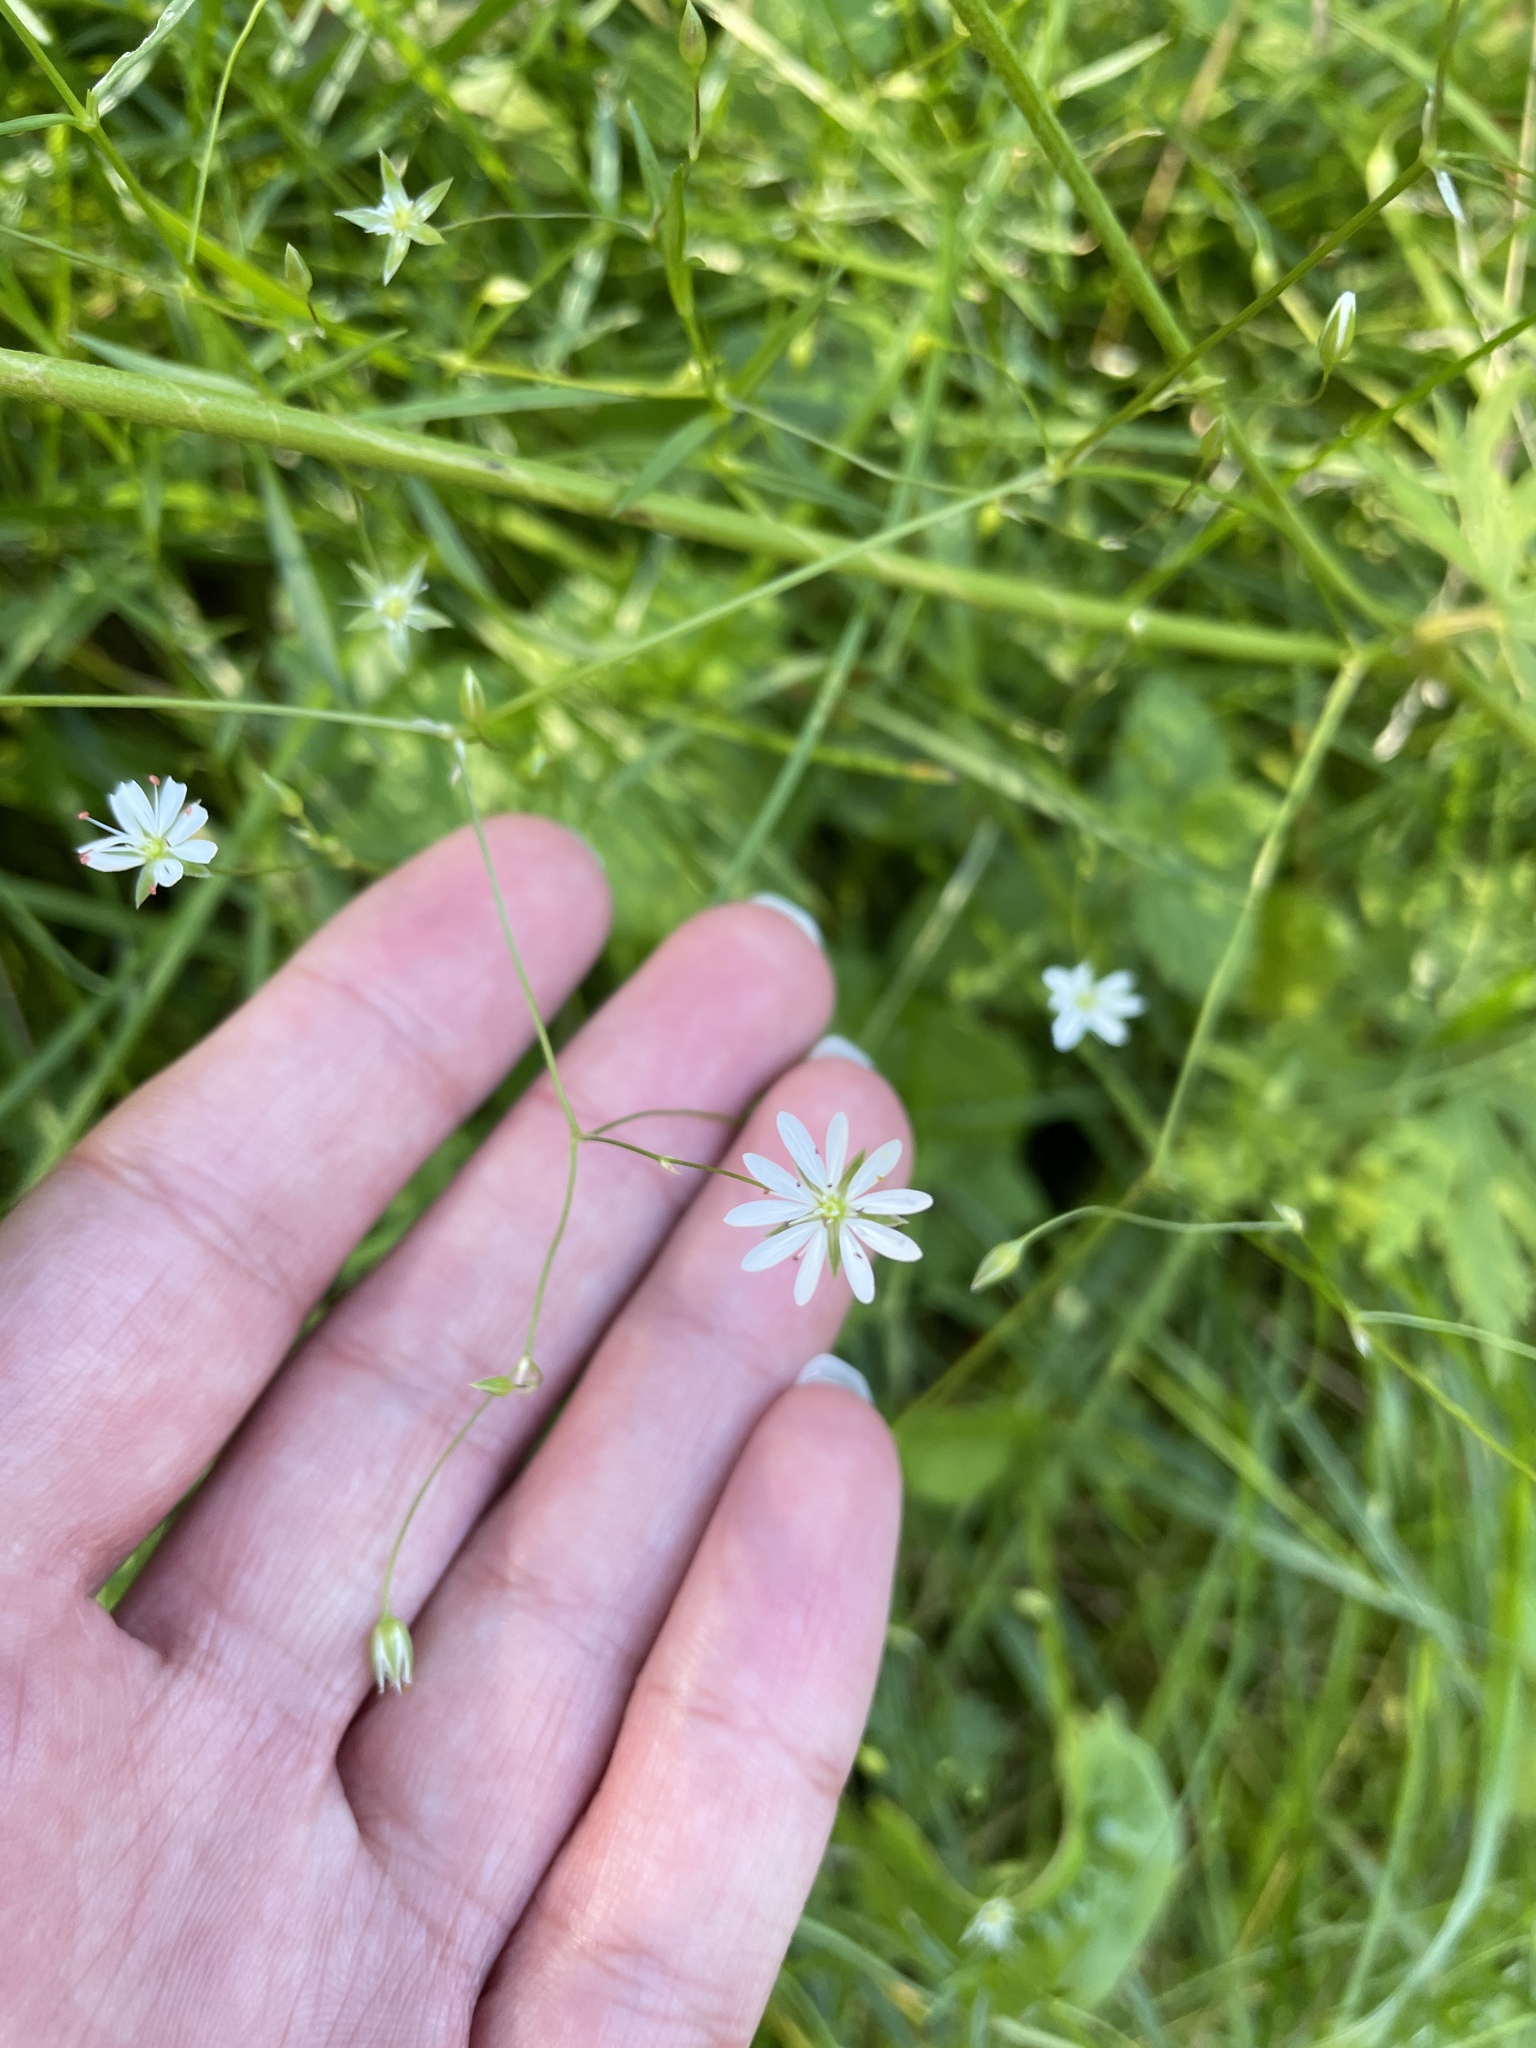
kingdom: Plantae
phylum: Tracheophyta
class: Magnoliopsida
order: Caryophyllales
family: Caryophyllaceae
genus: Stellaria
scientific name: Stellaria graminea
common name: Grass-like starwort
